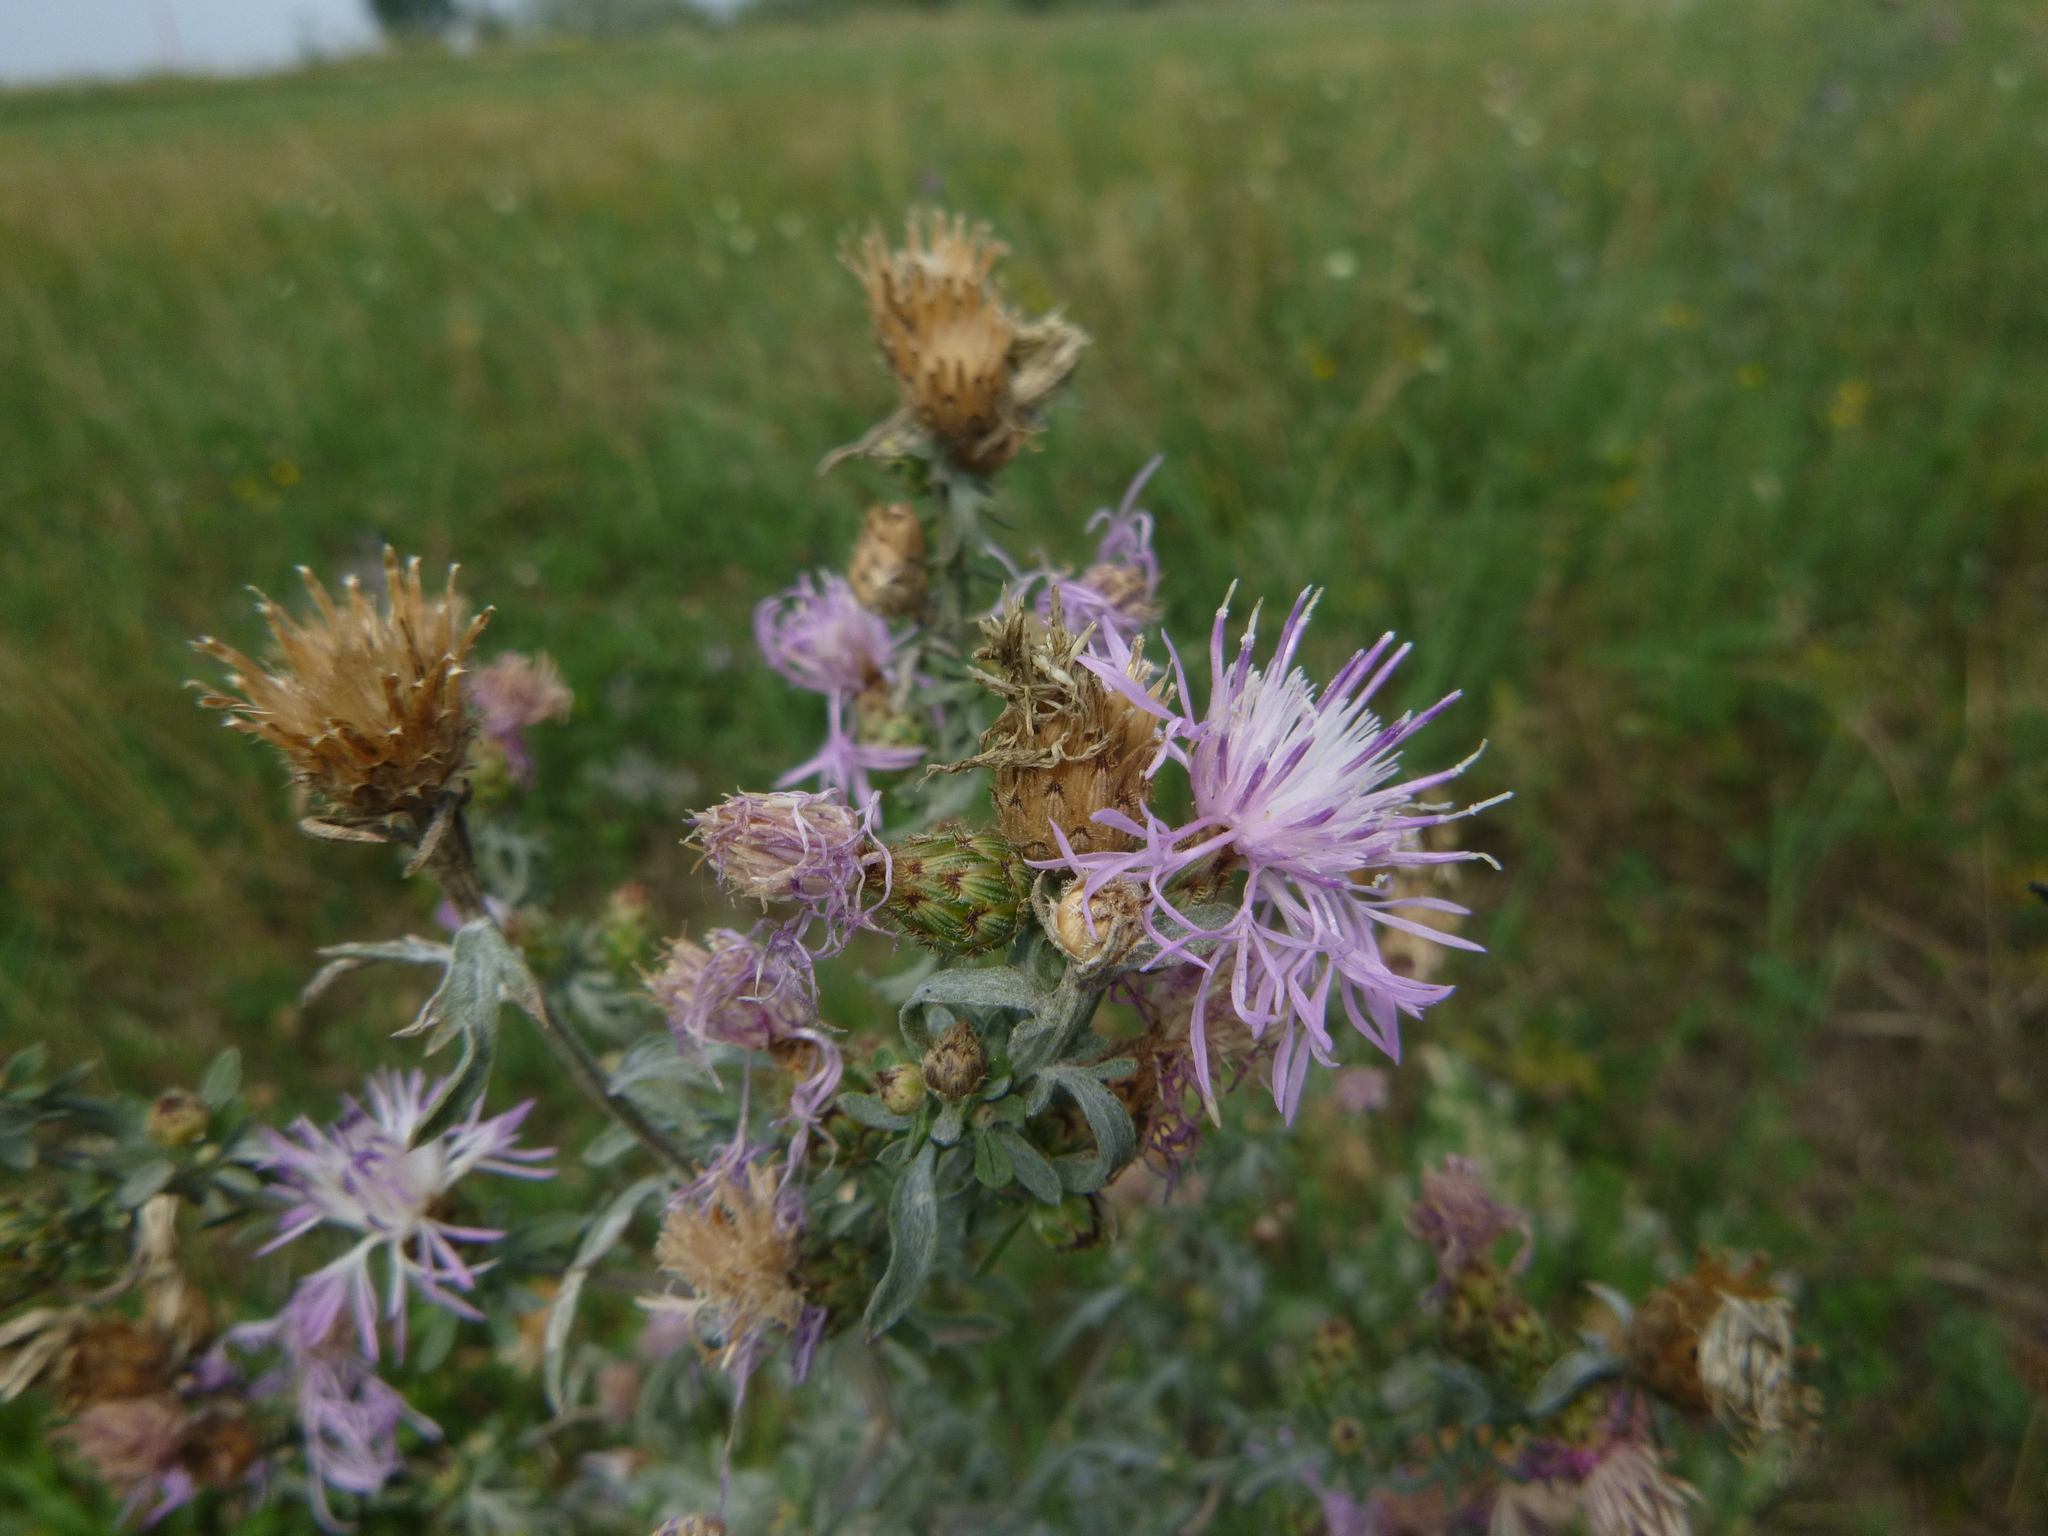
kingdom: Plantae
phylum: Tracheophyta
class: Magnoliopsida
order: Asterales
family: Asteraceae
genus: Centaurea
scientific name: Centaurea stoebe
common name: Spotted knapweed
